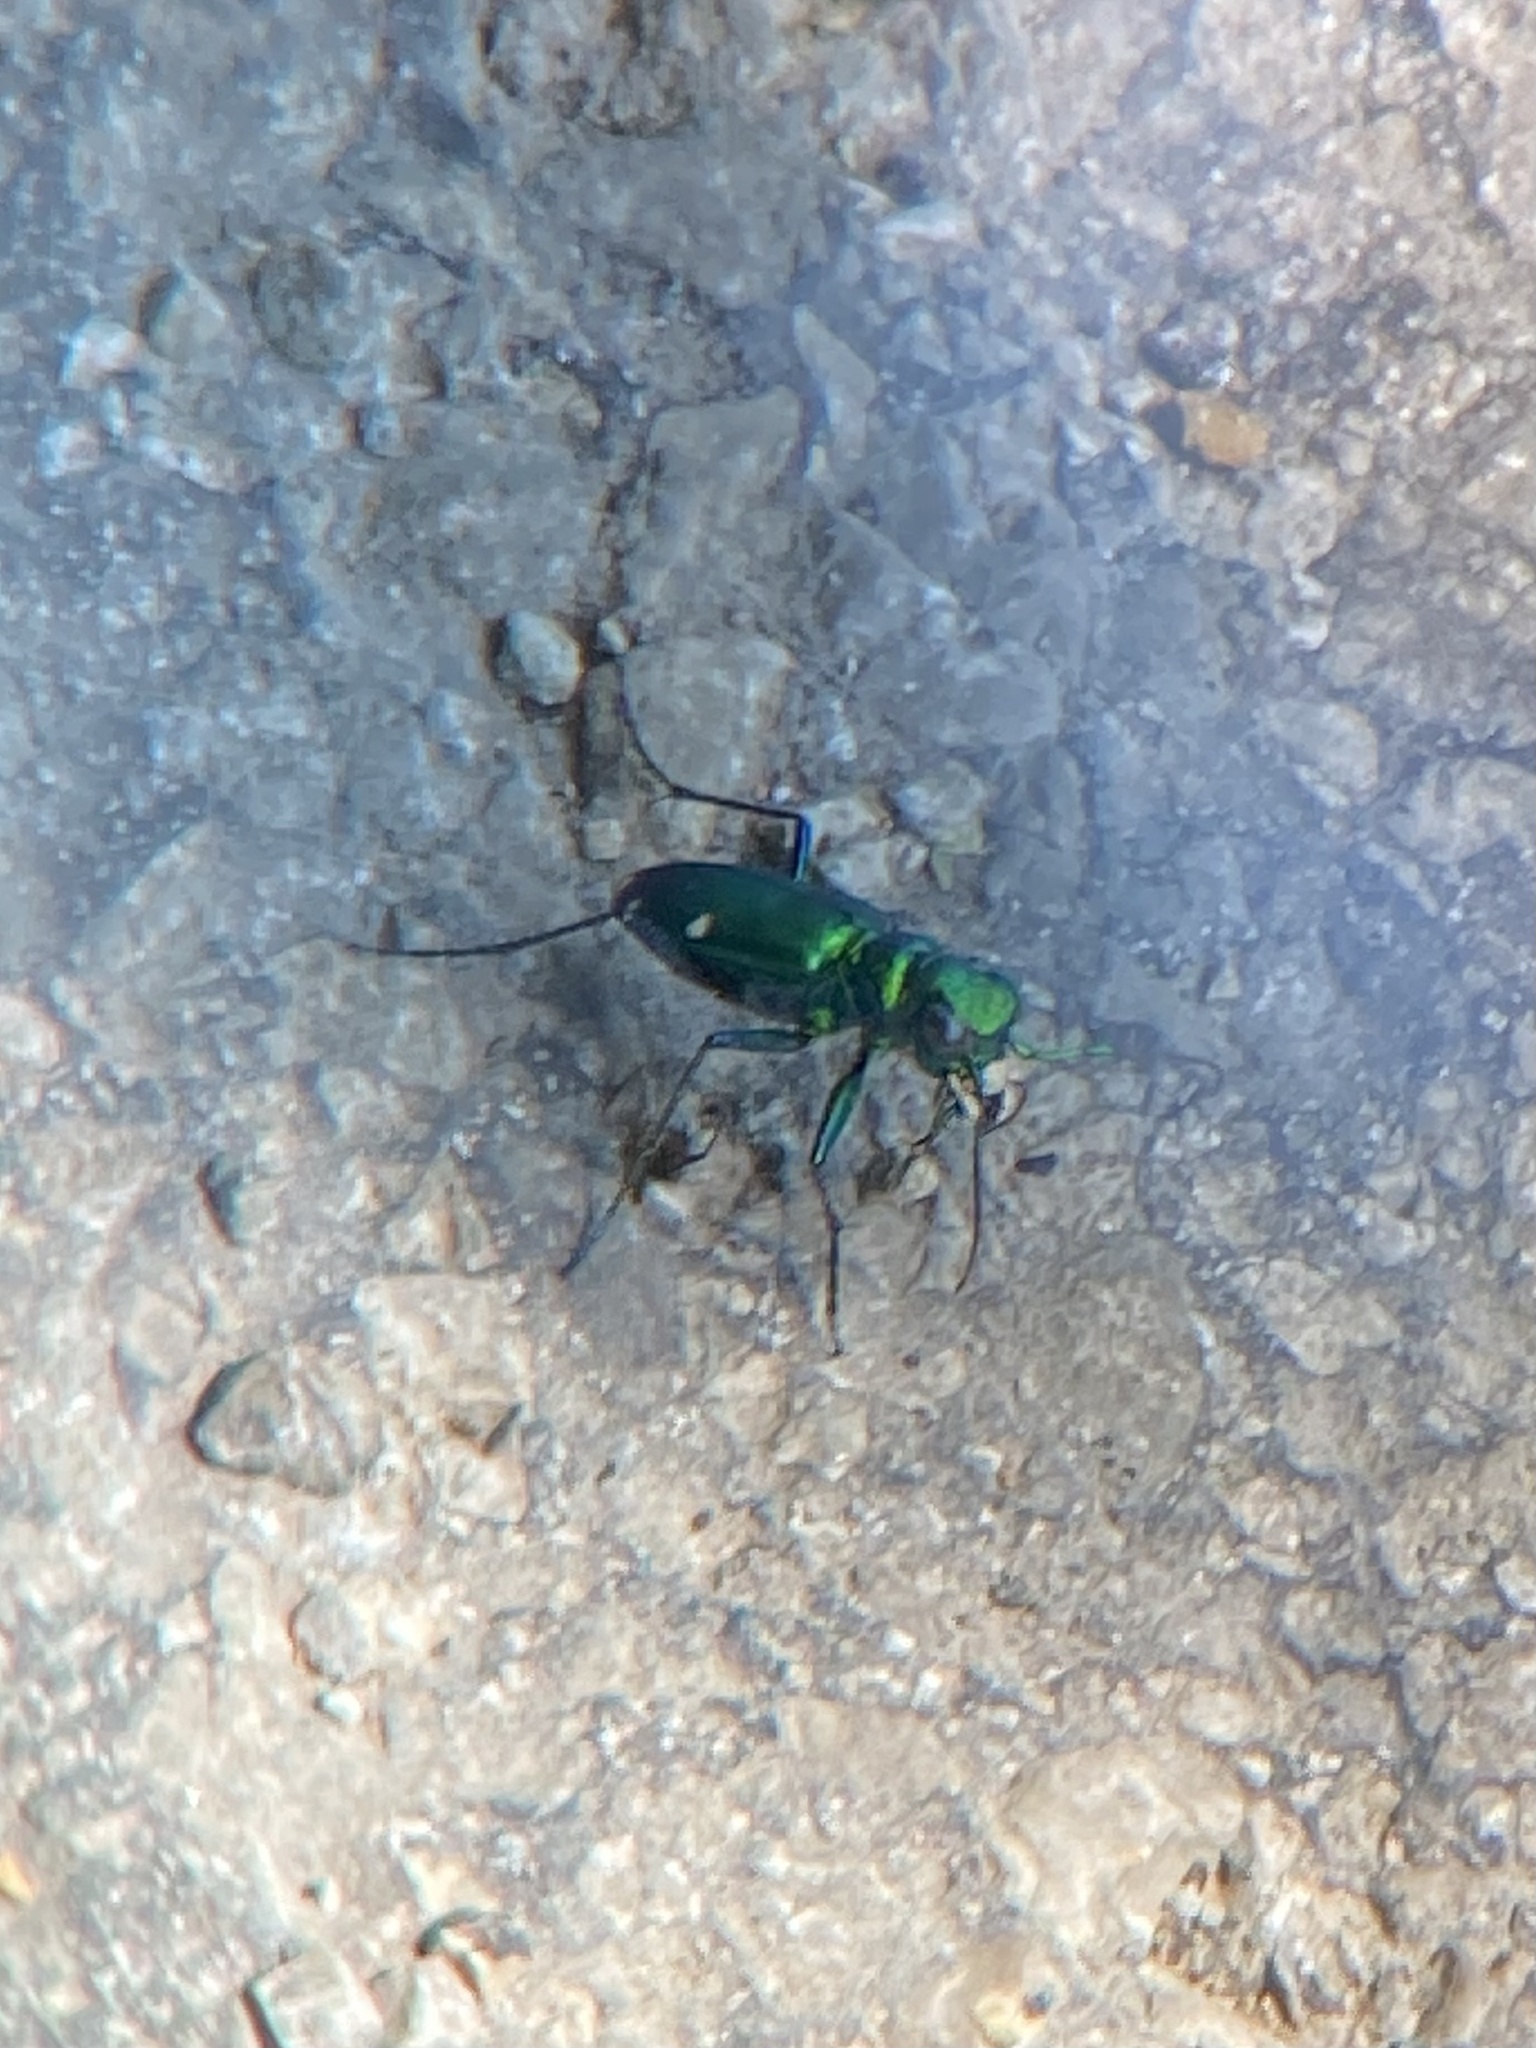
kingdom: Animalia
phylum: Arthropoda
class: Insecta
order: Coleoptera
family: Carabidae
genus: Cicindela
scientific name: Cicindela sexguttata
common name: Six-spotted tiger beetle
